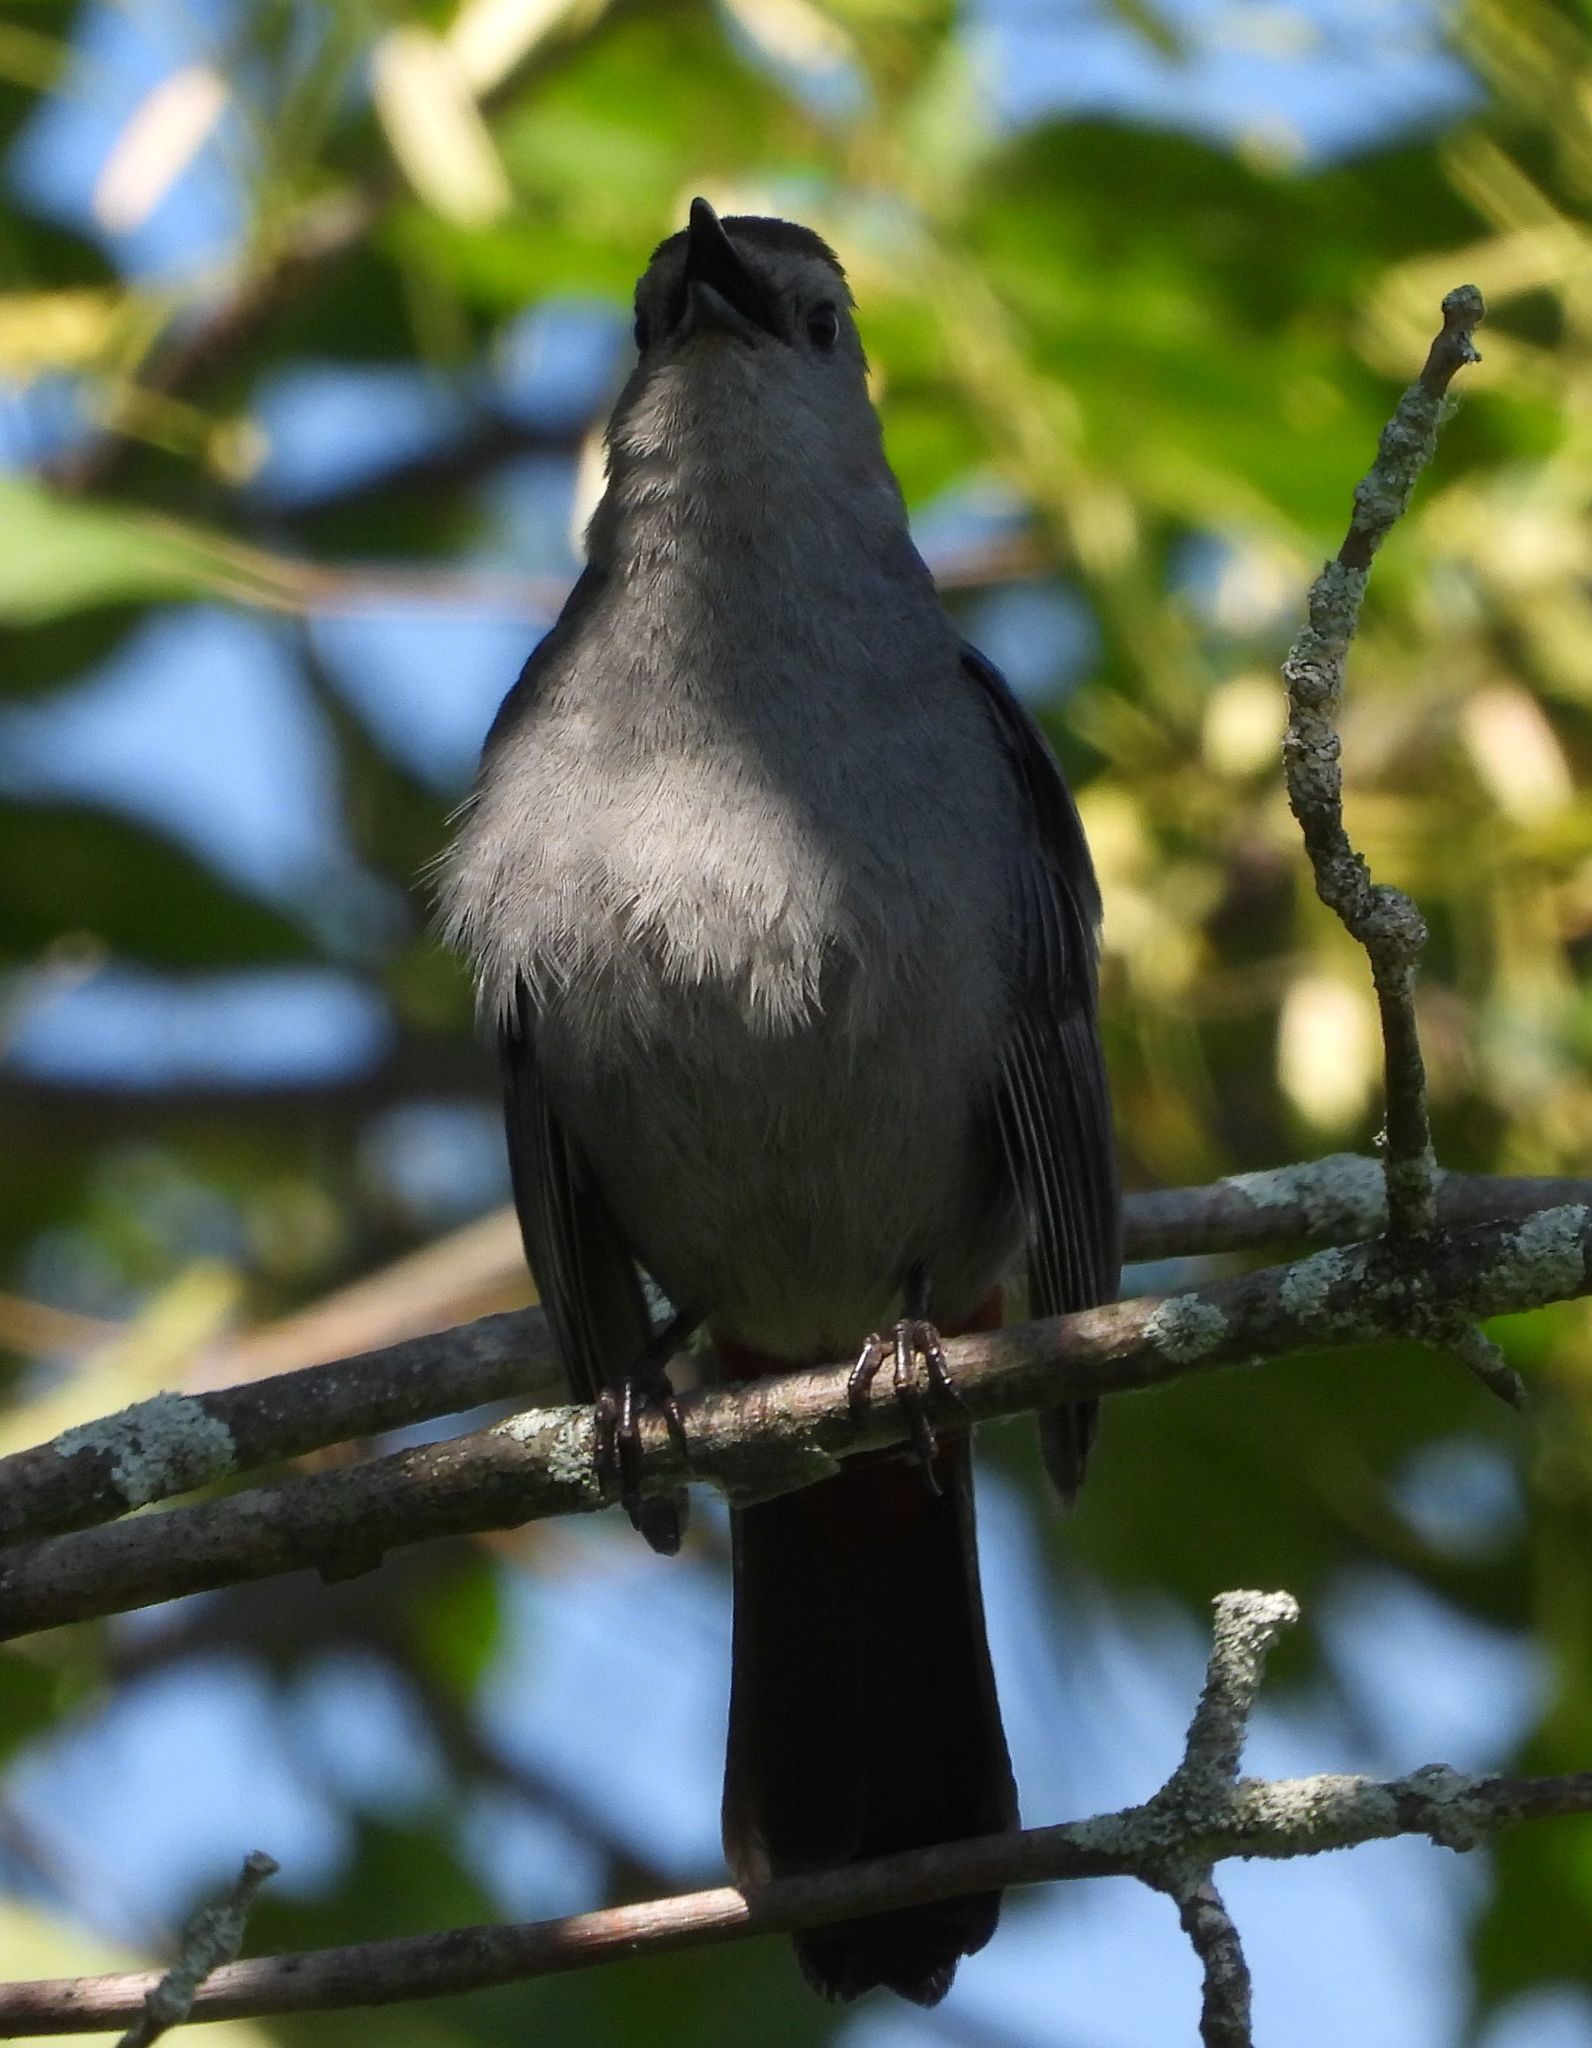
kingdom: Animalia
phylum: Chordata
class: Aves
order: Passeriformes
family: Mimidae
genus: Dumetella
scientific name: Dumetella carolinensis
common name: Gray catbird
